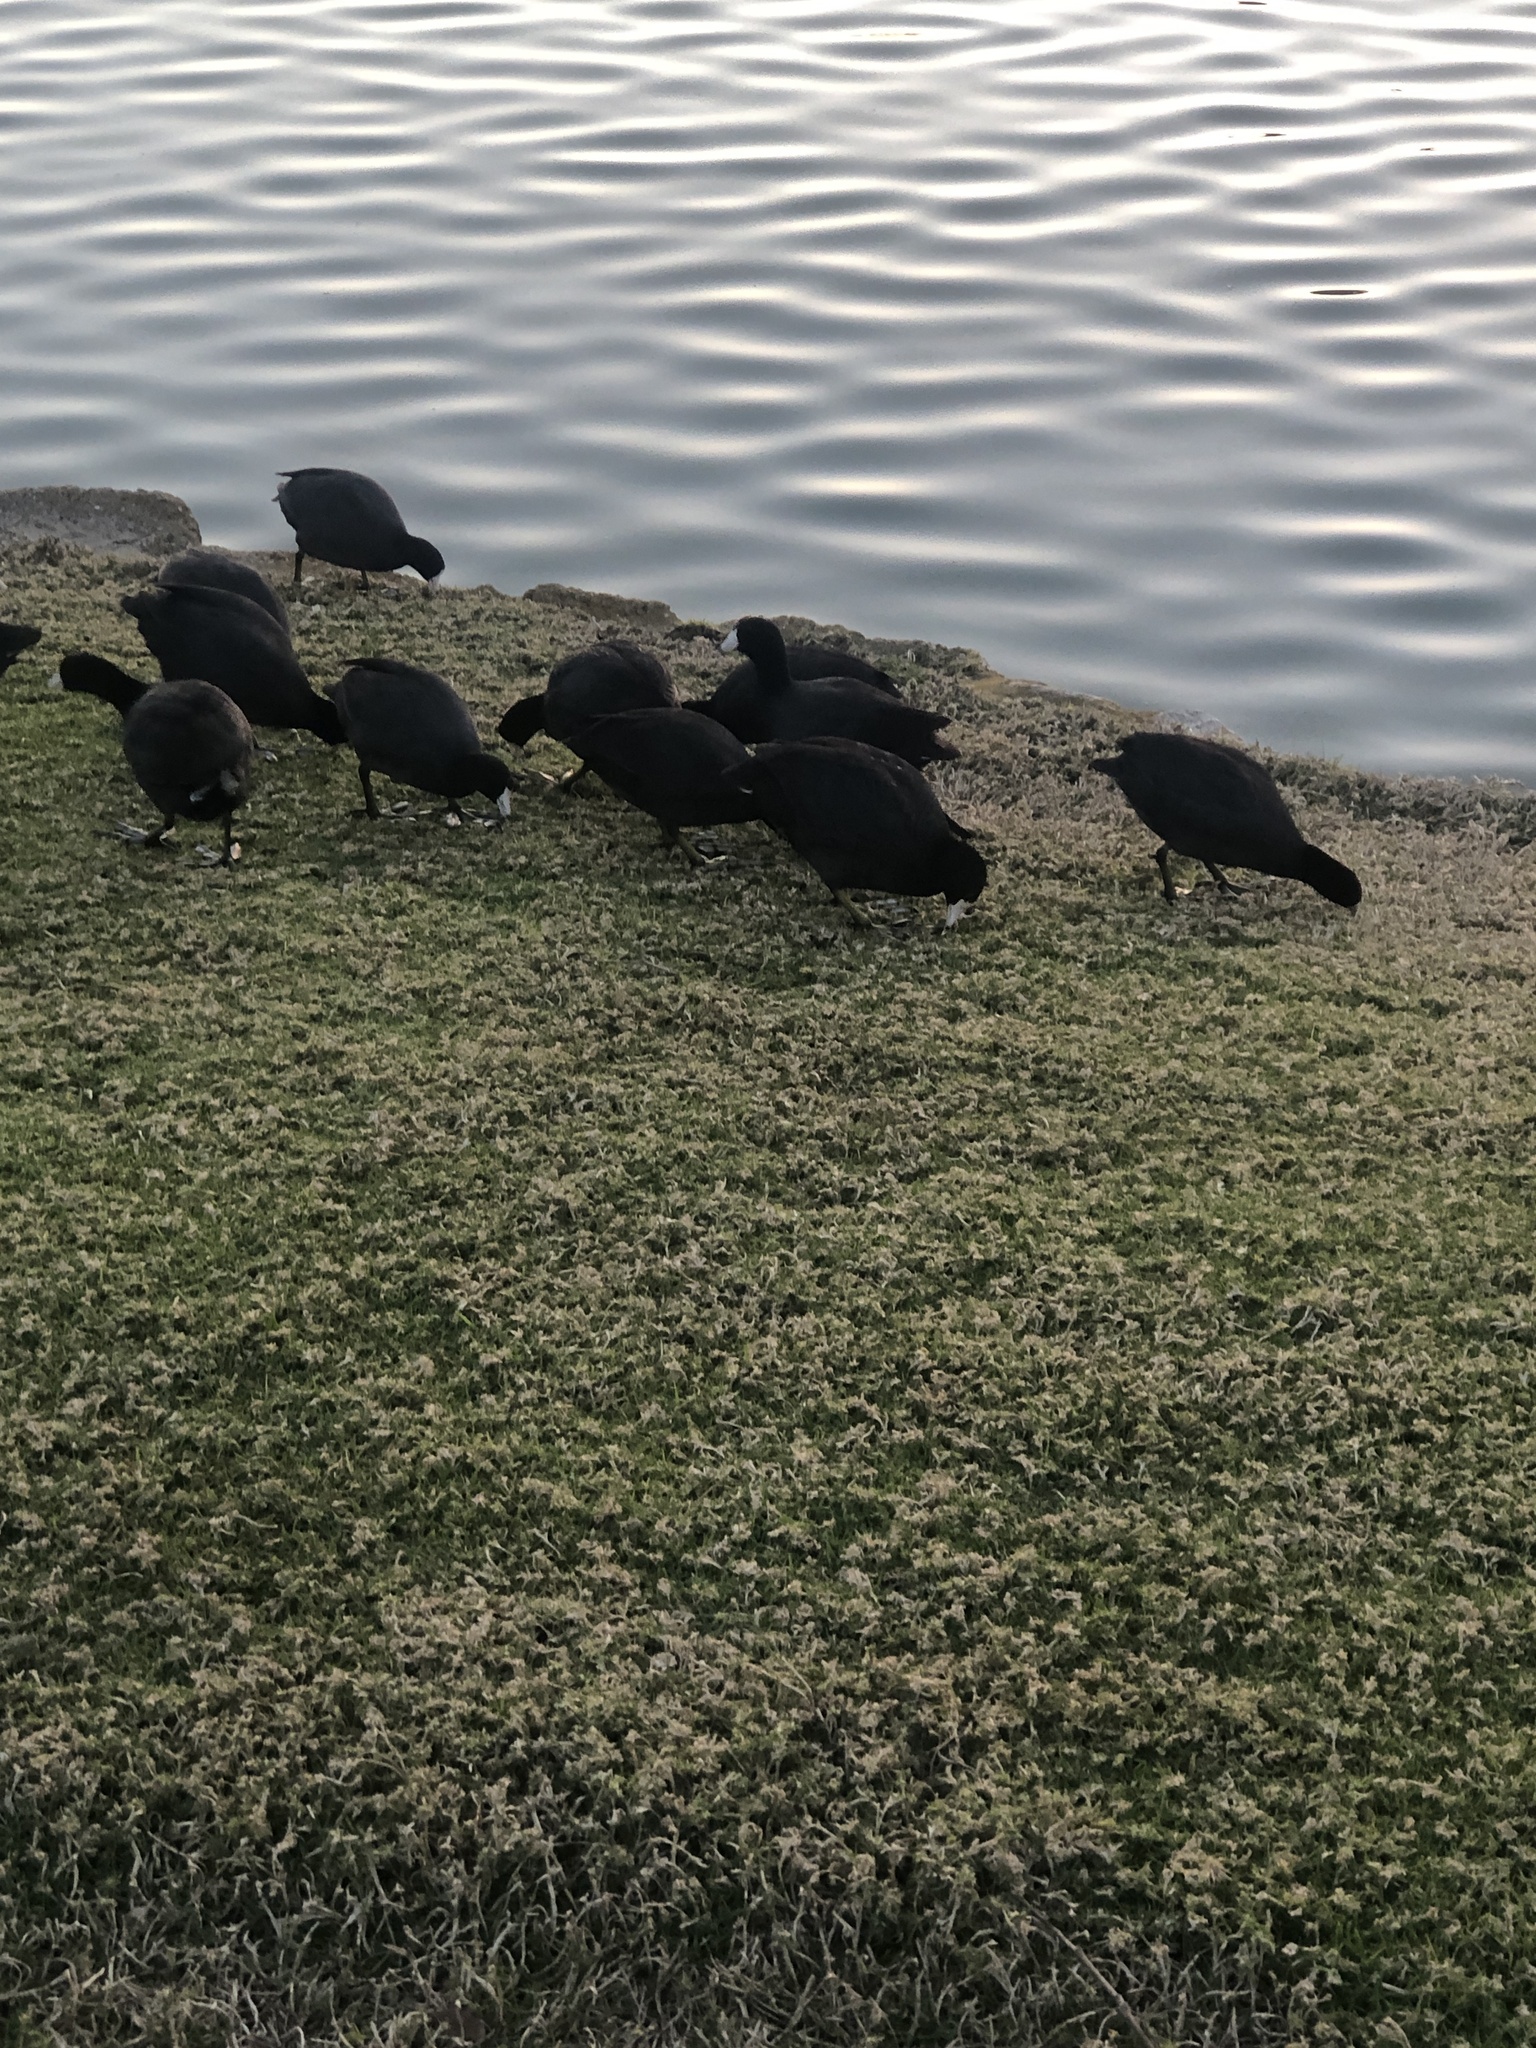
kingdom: Animalia
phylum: Chordata
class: Aves
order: Gruiformes
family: Rallidae
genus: Fulica
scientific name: Fulica americana
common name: American coot
